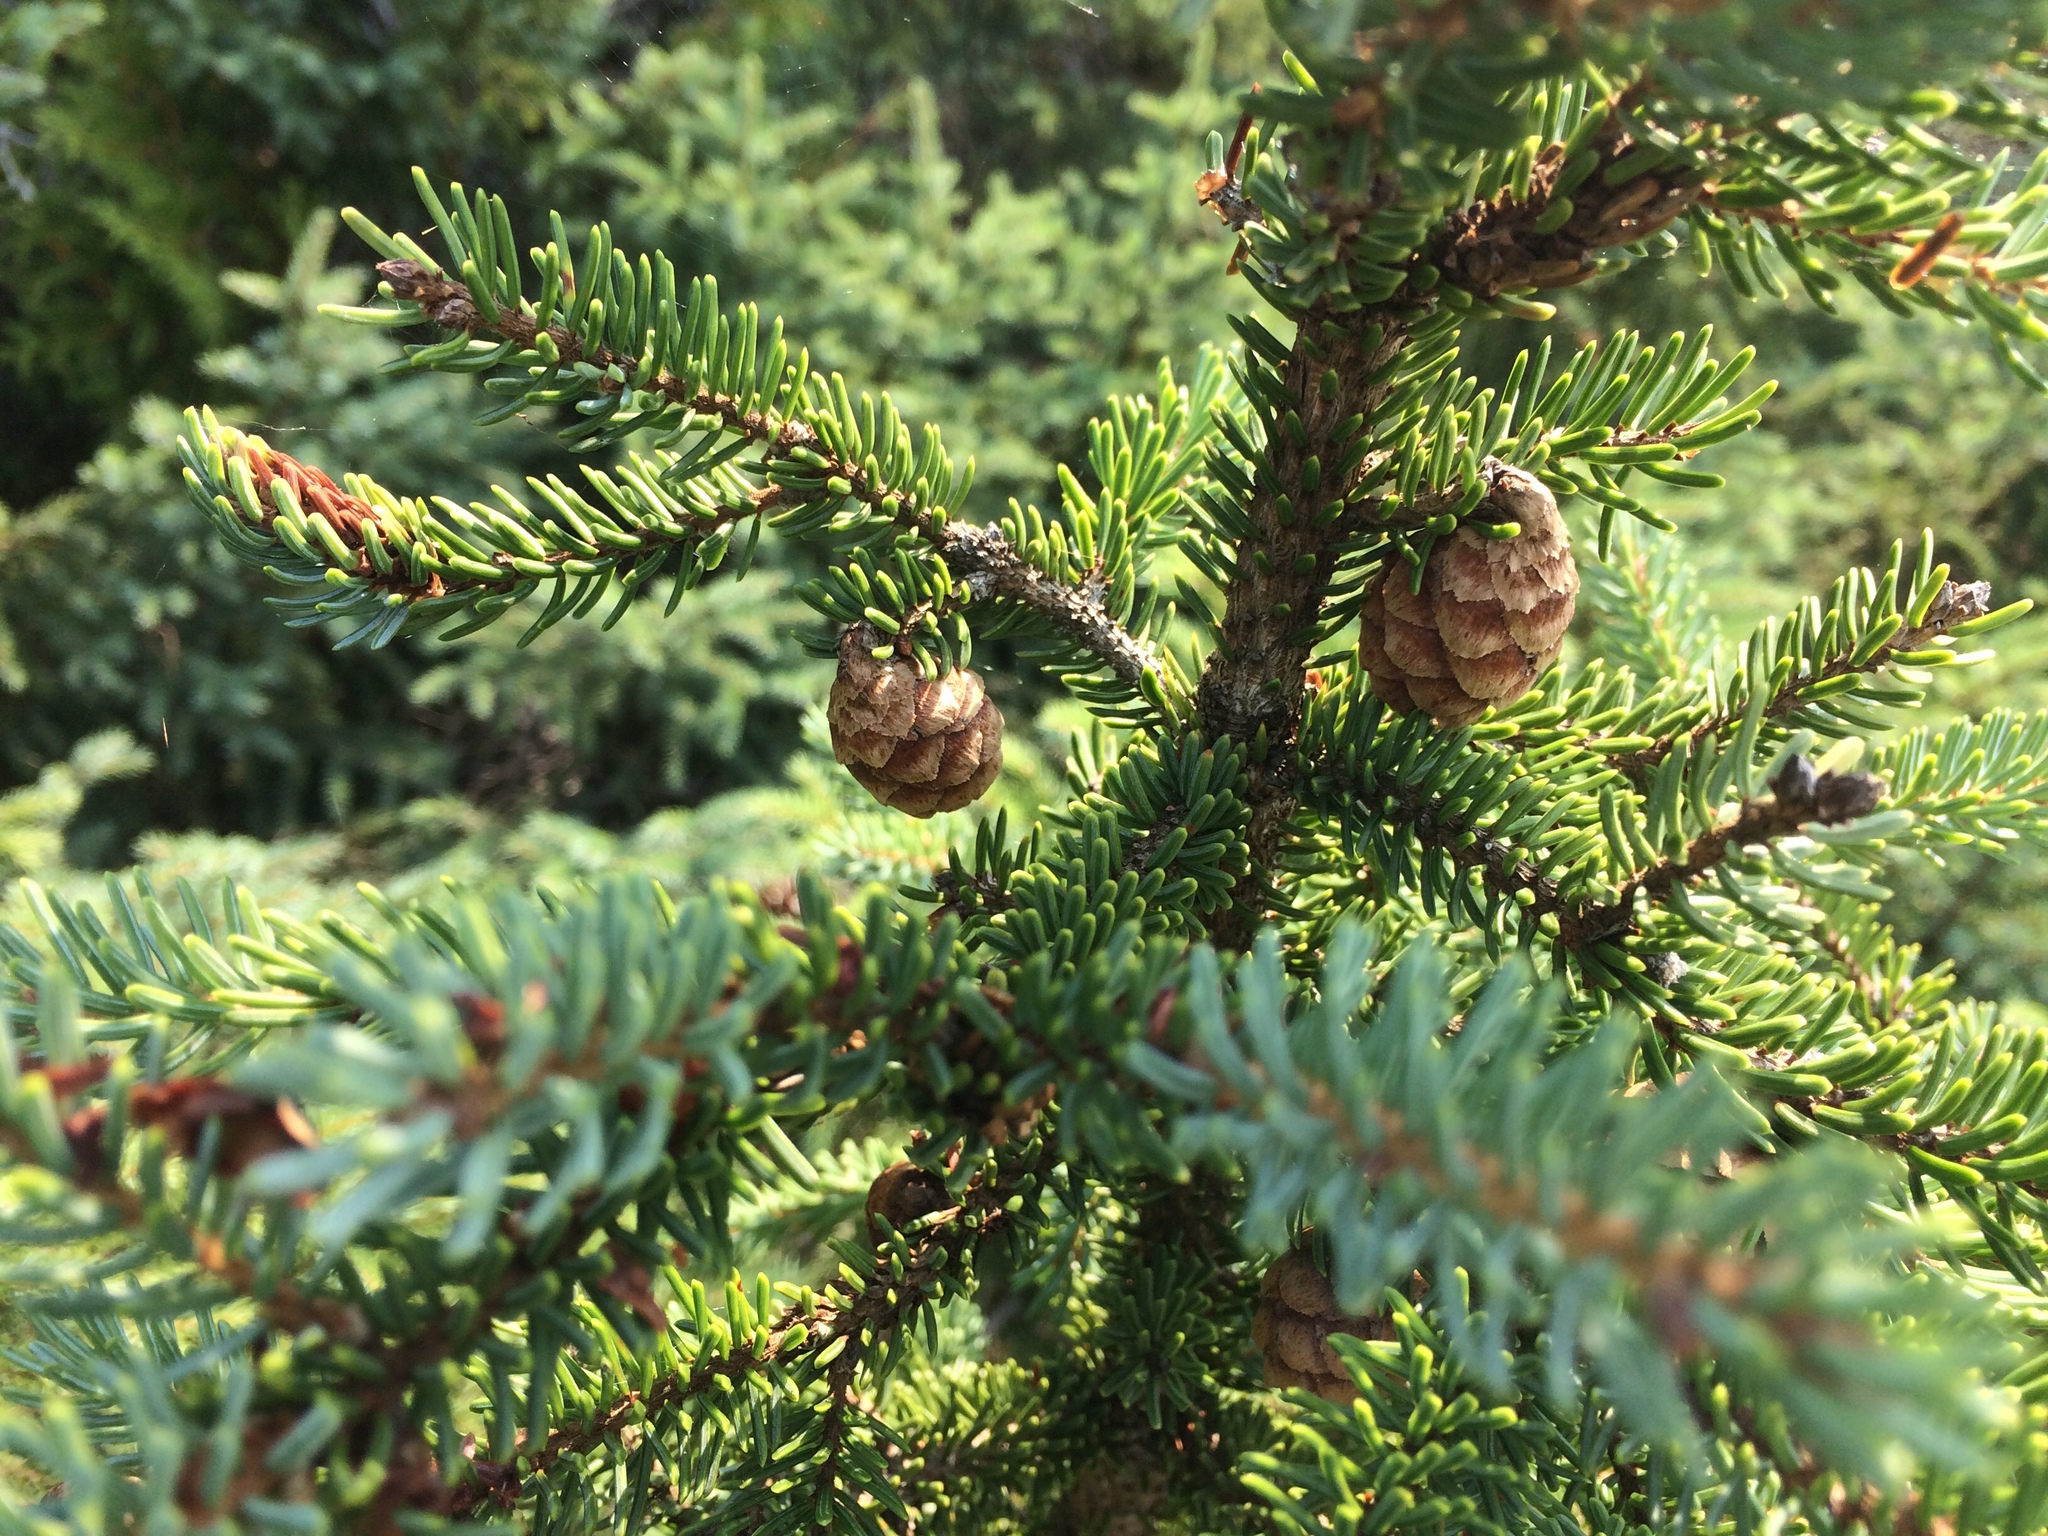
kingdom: Plantae
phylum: Tracheophyta
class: Pinopsida
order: Pinales
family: Pinaceae
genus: Picea
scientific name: Picea mariana
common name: Black spruce
